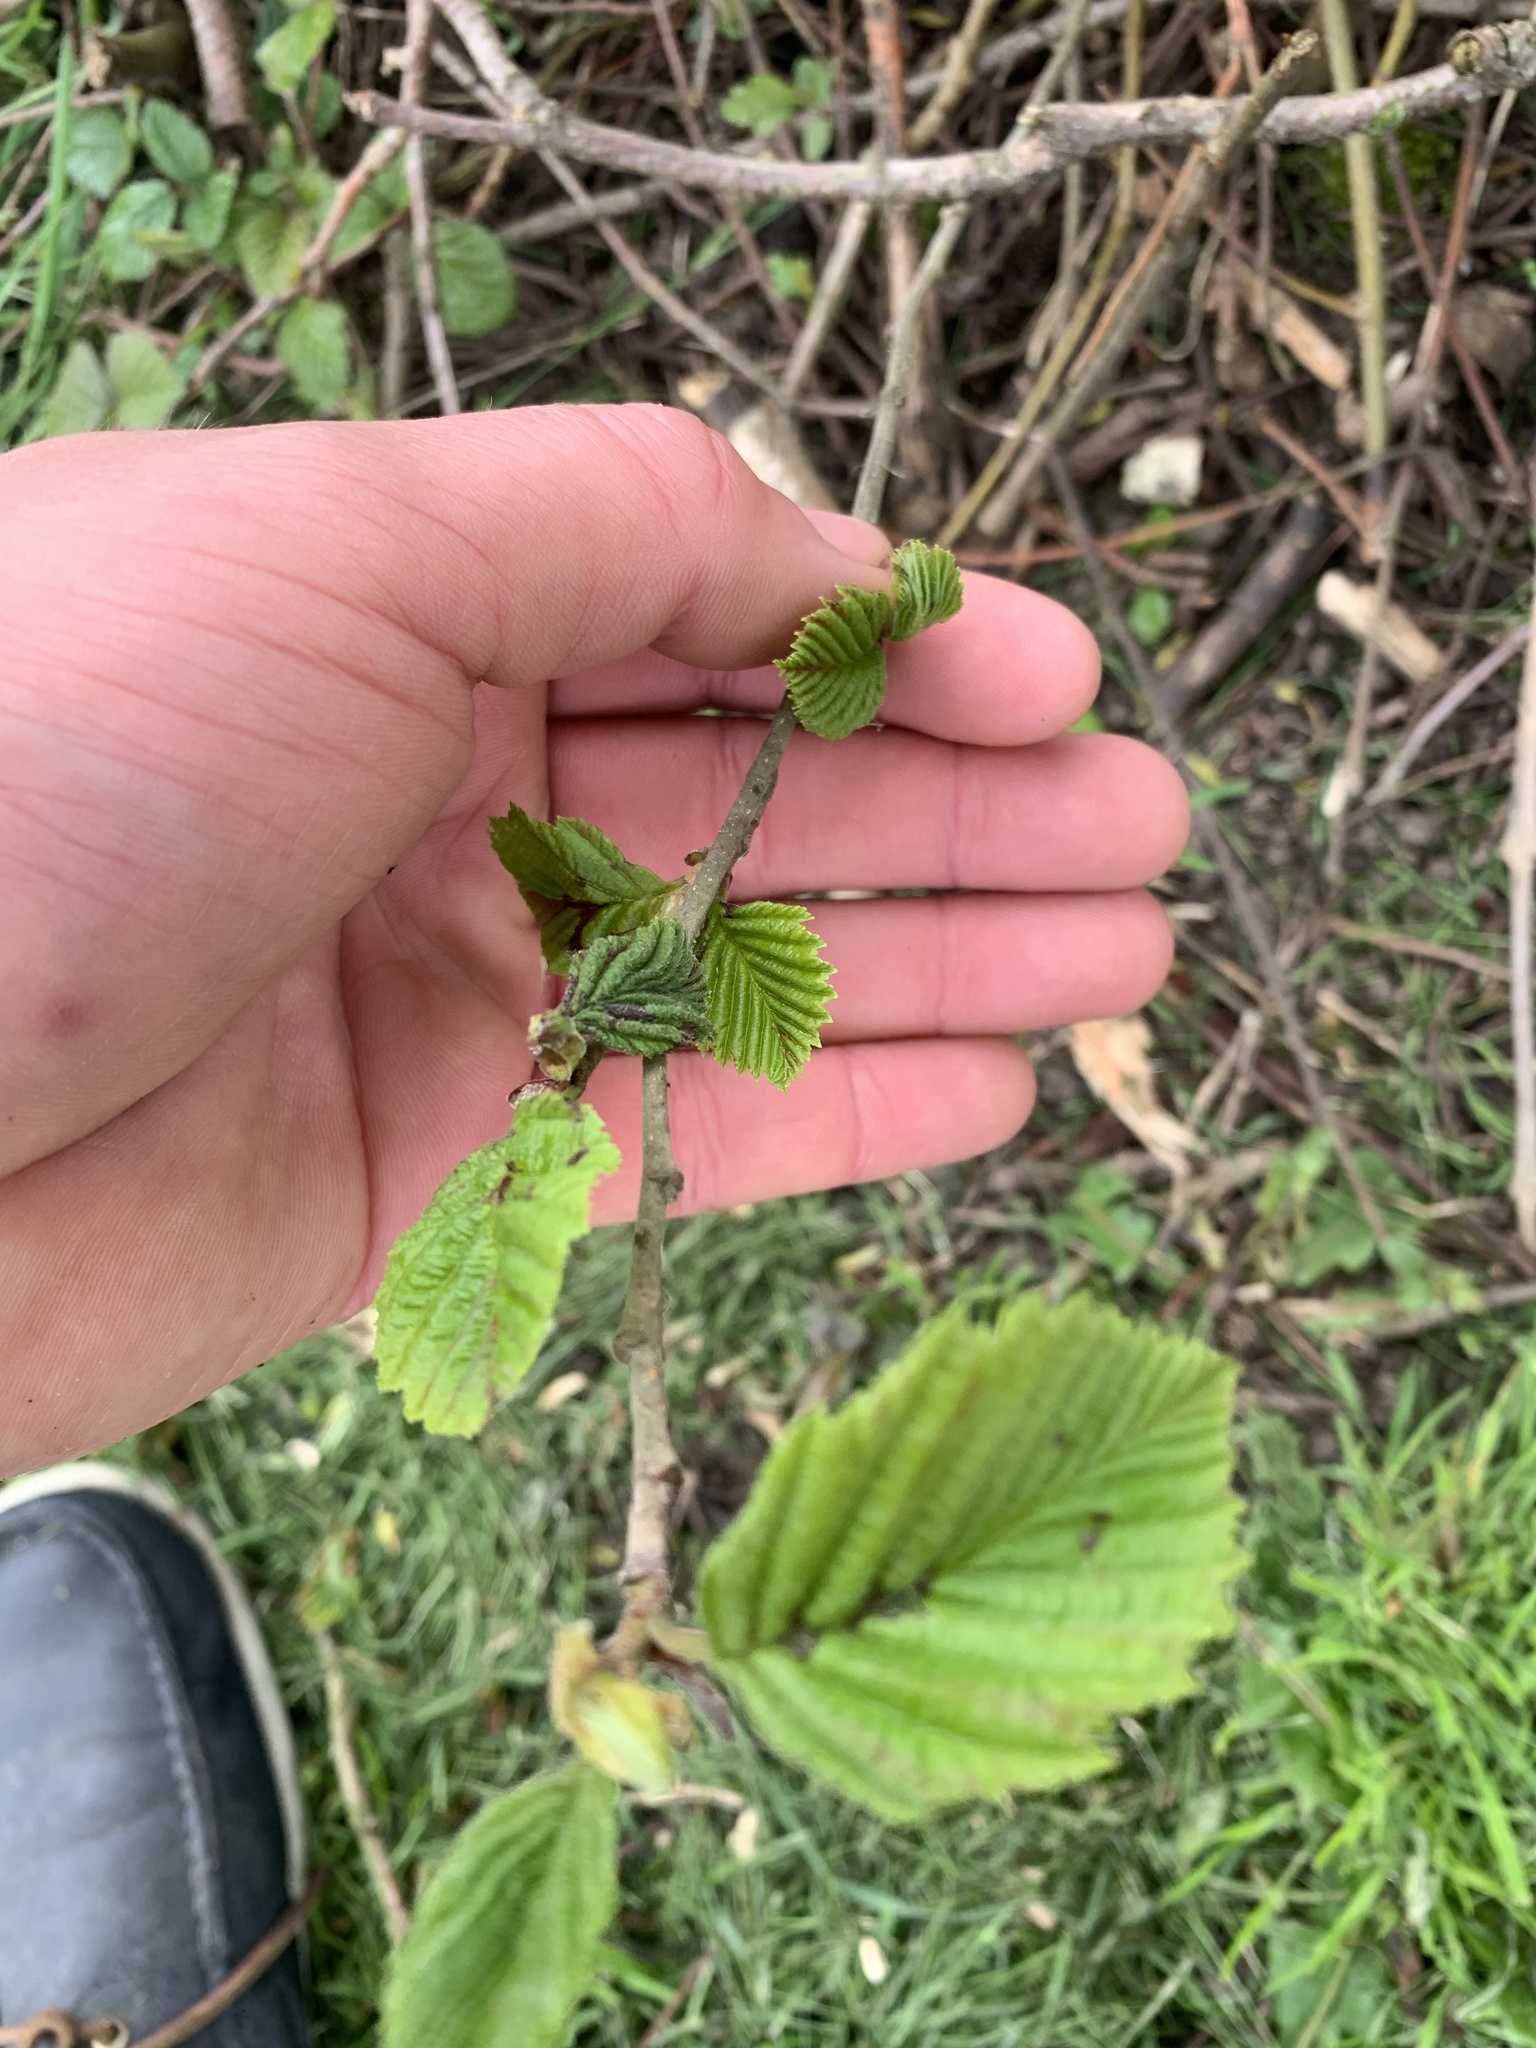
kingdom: Plantae
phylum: Tracheophyta
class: Magnoliopsida
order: Fagales
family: Betulaceae
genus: Corylus
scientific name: Corylus avellana
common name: European hazel
